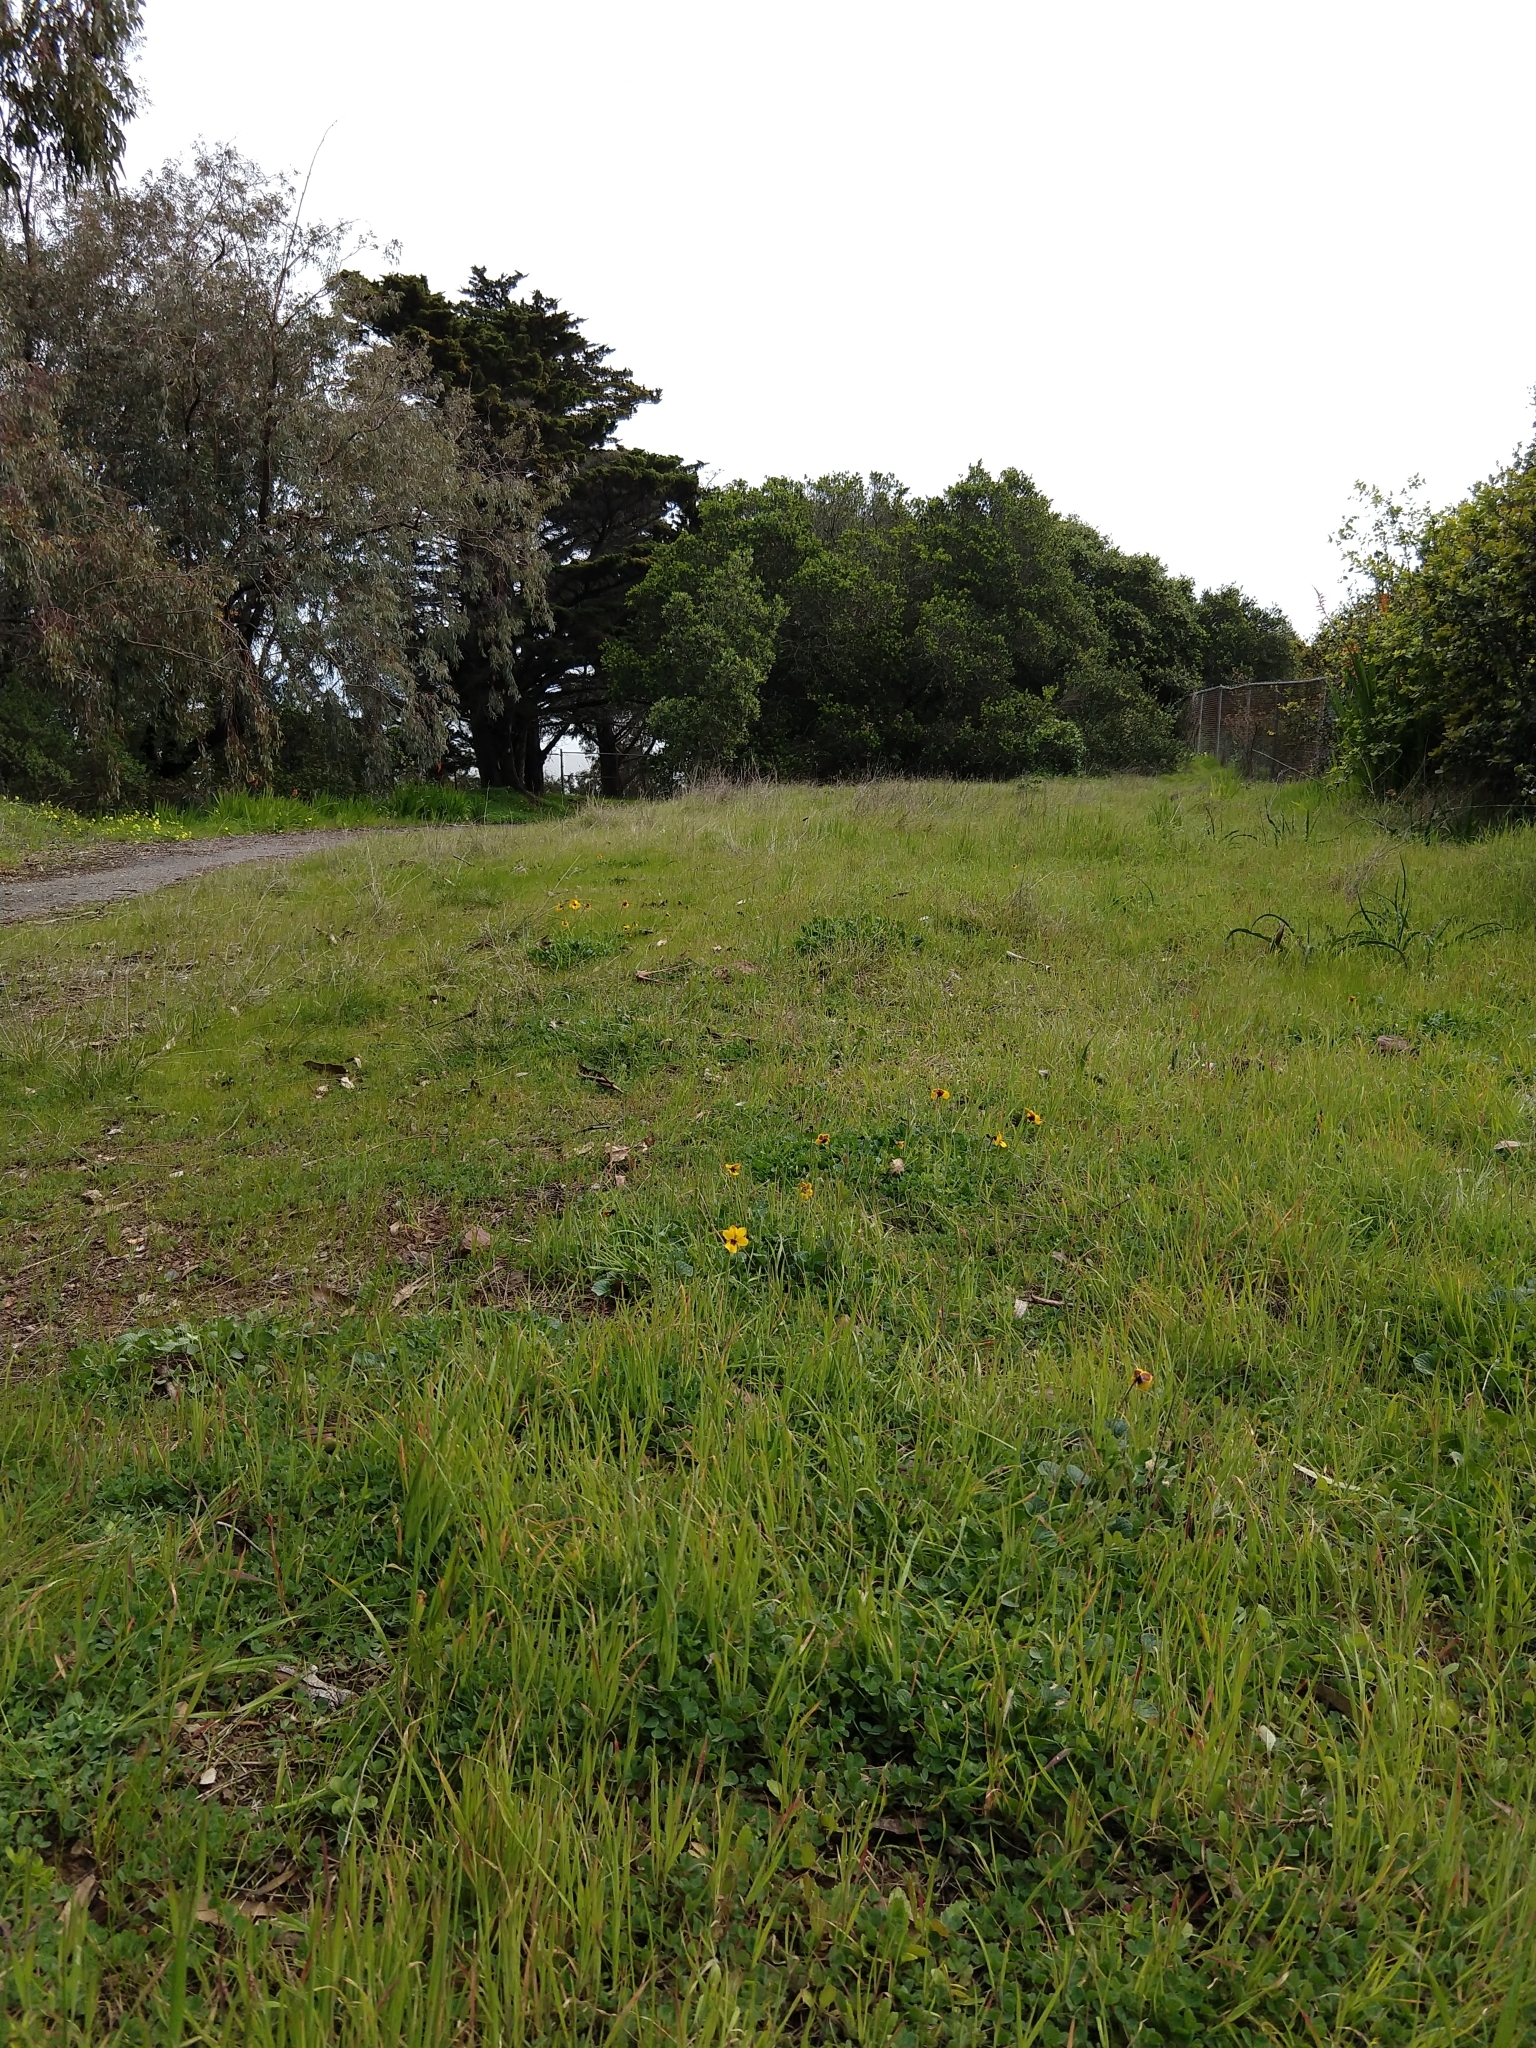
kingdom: Plantae
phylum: Tracheophyta
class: Magnoliopsida
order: Malpighiales
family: Violaceae
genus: Viola
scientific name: Viola pedunculata
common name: California golden violet
